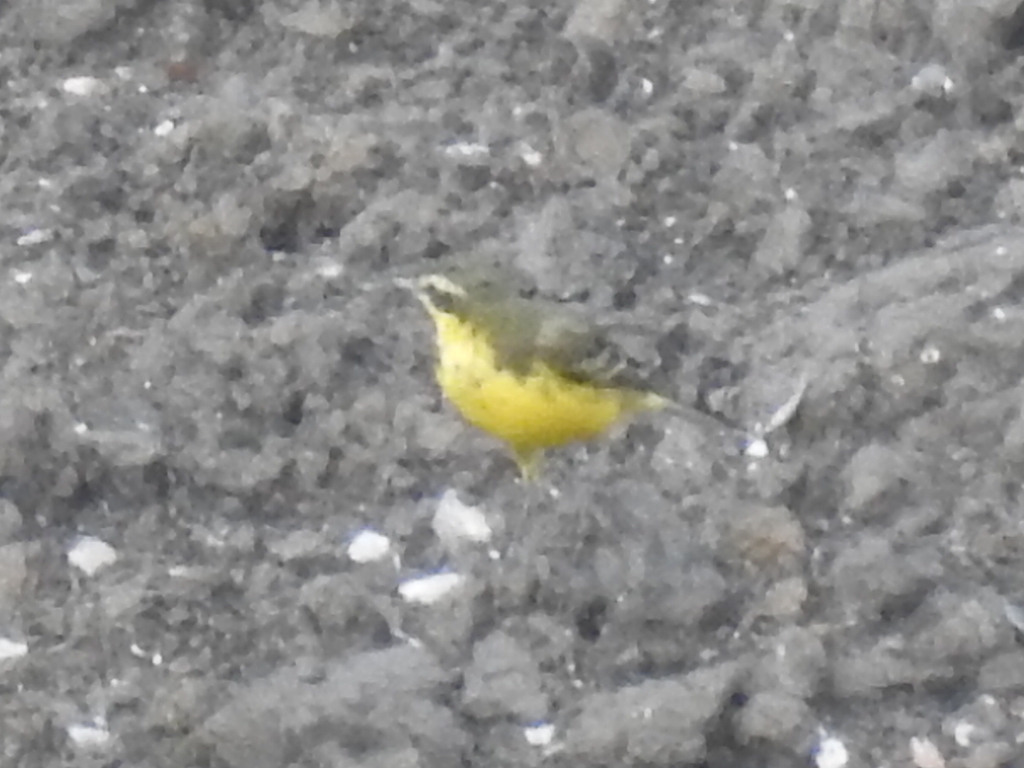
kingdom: Animalia
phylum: Chordata
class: Aves
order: Passeriformes
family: Motacillidae
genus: Motacilla
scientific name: Motacilla tschutschensis
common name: Eastern yellow wagtail
